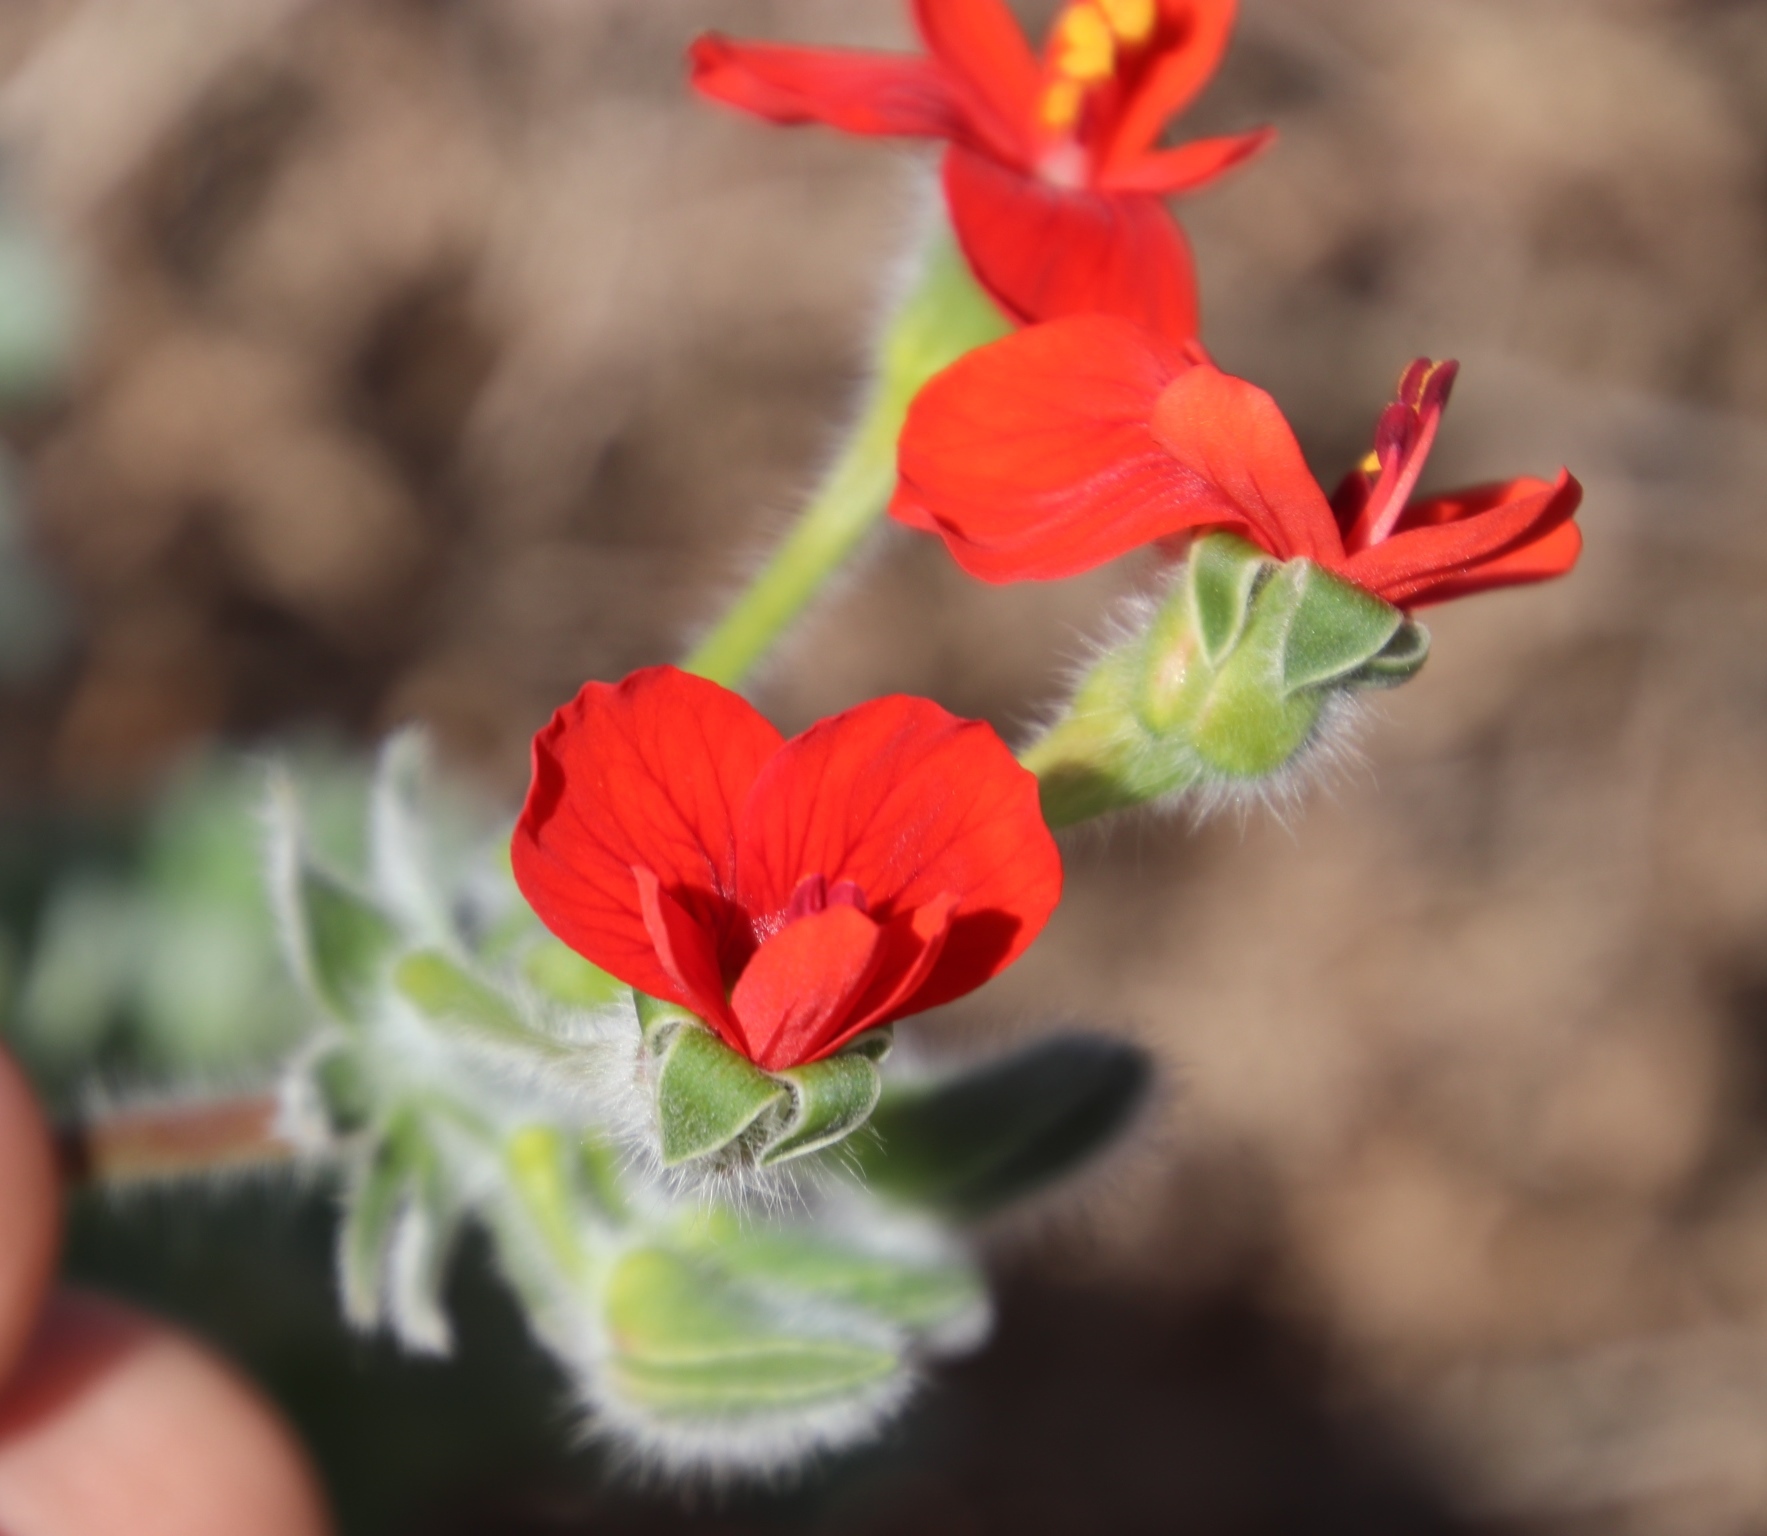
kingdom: Plantae
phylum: Tracheophyta
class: Magnoliopsida
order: Geraniales
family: Geraniaceae
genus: Pelargonium
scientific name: Pelargonium fulgidum
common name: Celandine-leaf pelargonium
